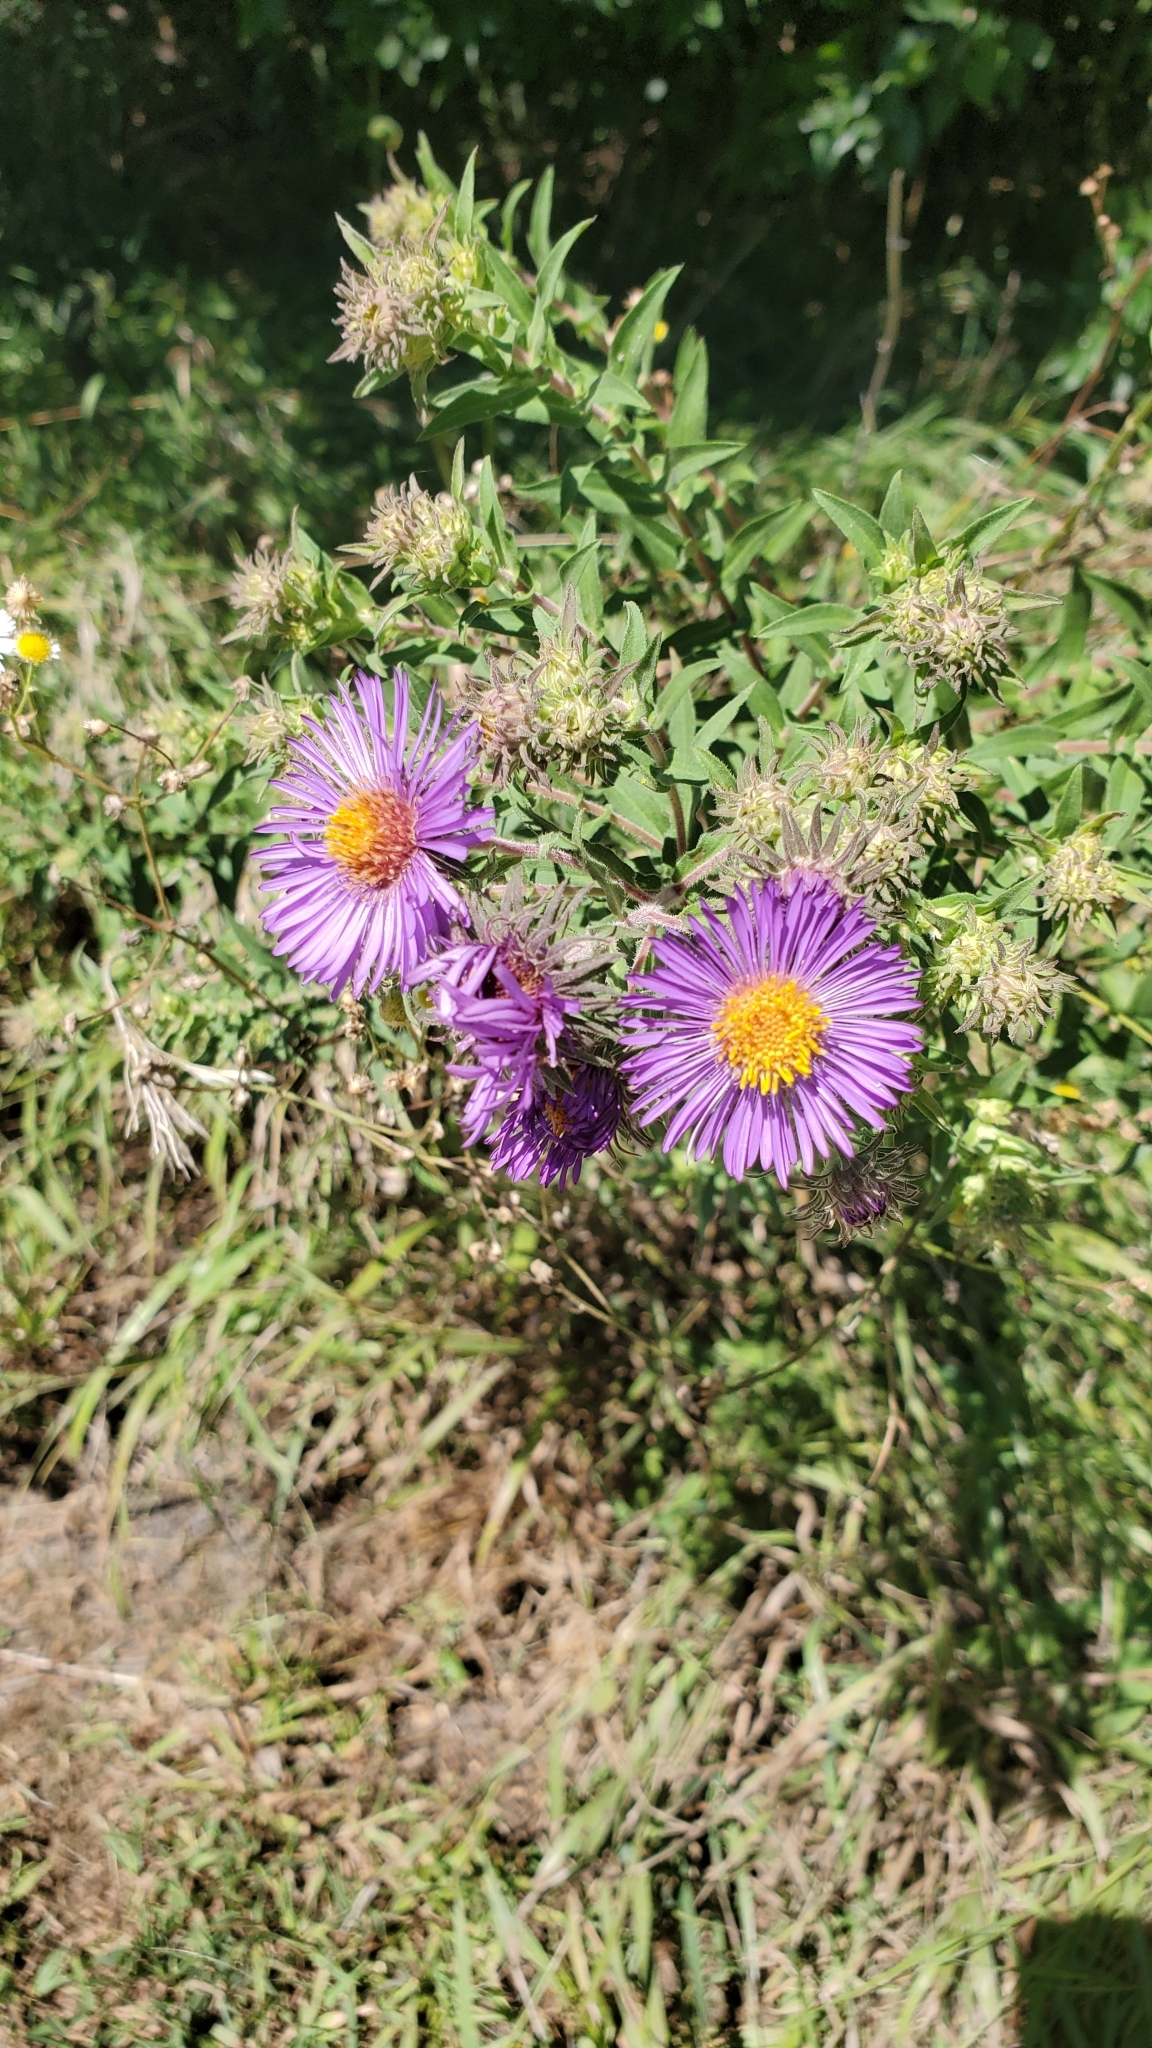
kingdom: Plantae
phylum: Tracheophyta
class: Magnoliopsida
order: Asterales
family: Asteraceae
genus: Symphyotrichum
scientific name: Symphyotrichum novae-angliae
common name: Michaelmas daisy
